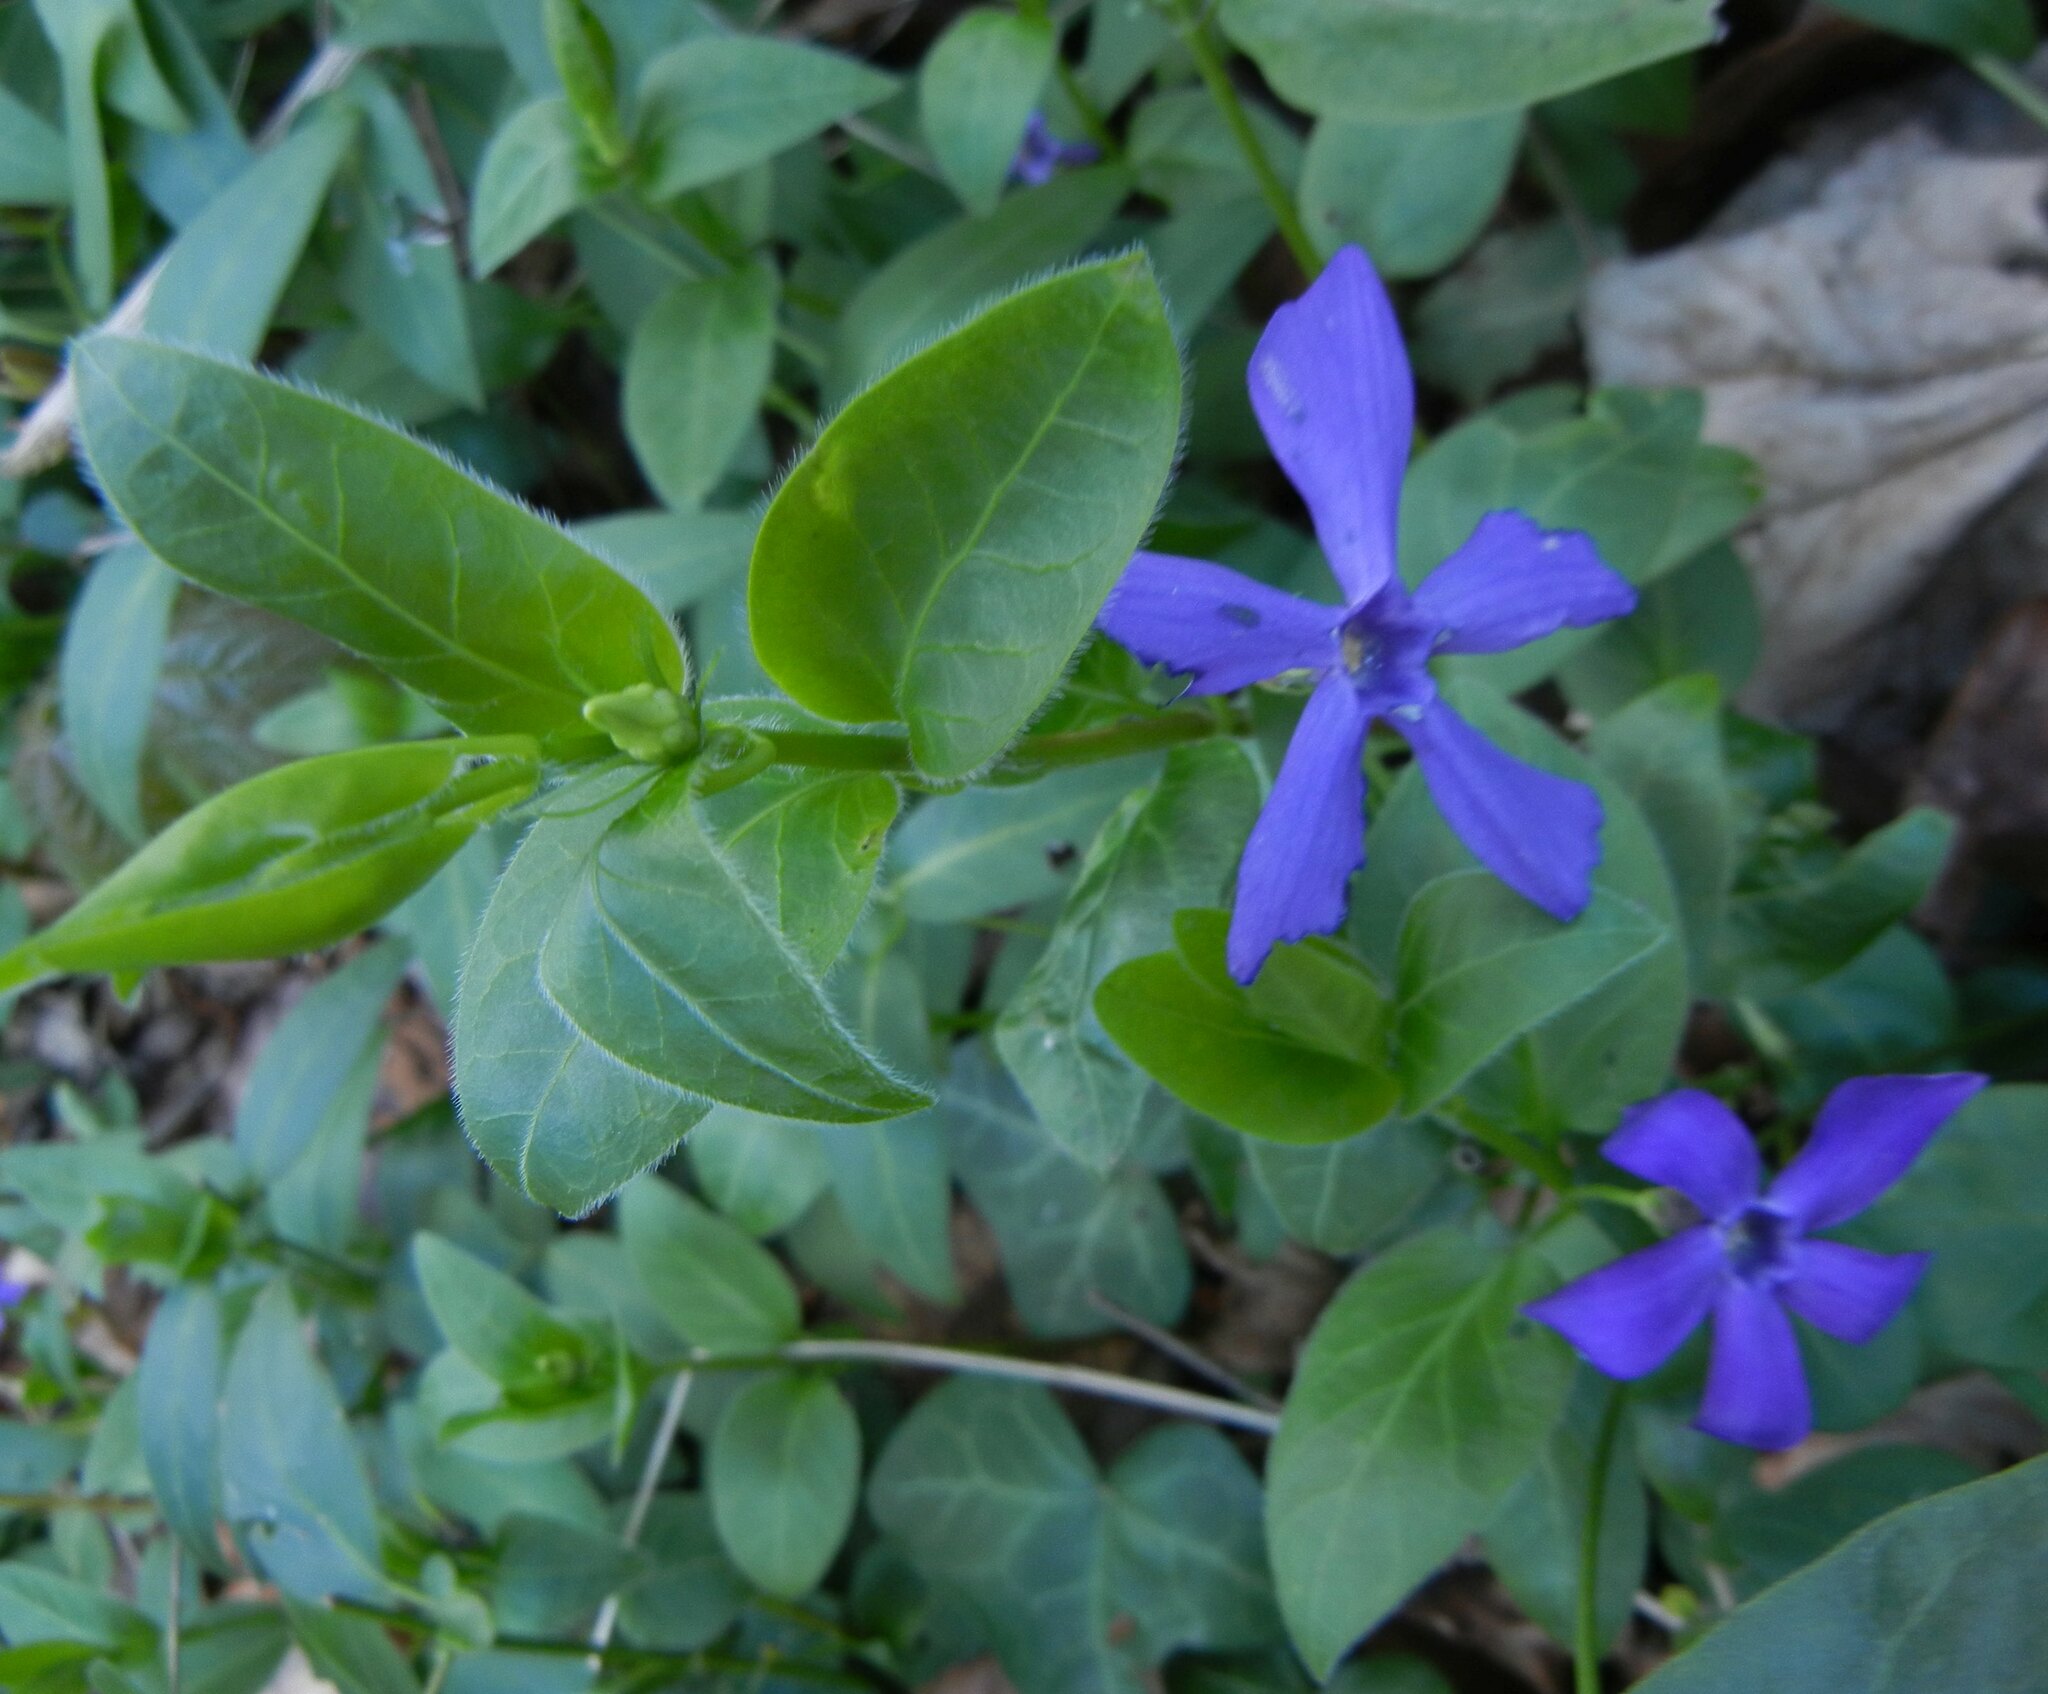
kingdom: Plantae
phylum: Tracheophyta
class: Magnoliopsida
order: Gentianales
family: Apocynaceae
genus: Vinca
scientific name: Vinca major
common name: Greater periwinkle
